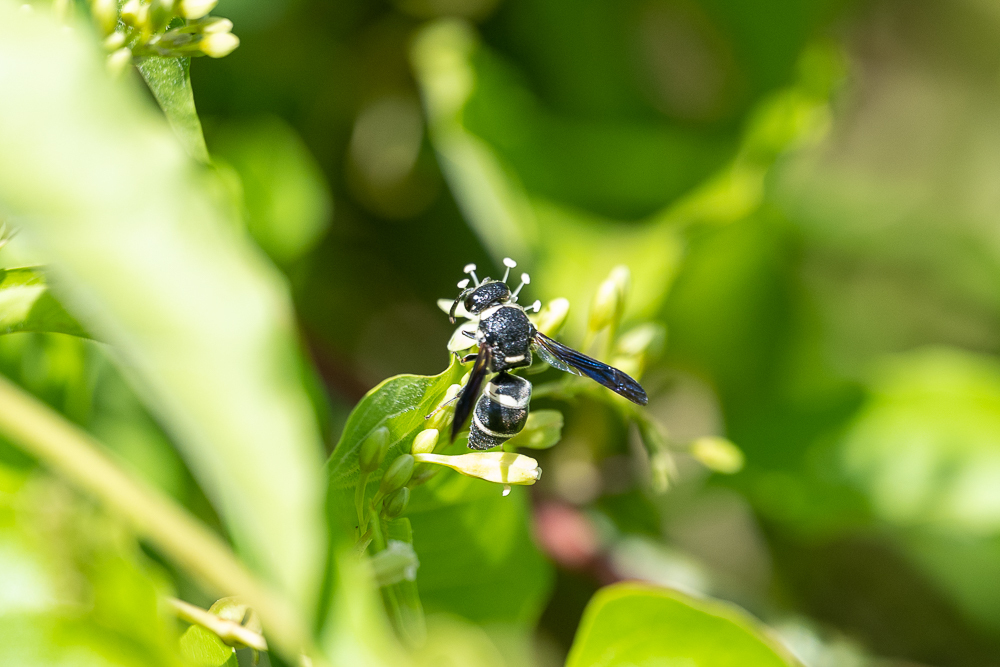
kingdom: Animalia
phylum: Arthropoda
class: Insecta
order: Hymenoptera
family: Eumenidae
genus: Euodynerus
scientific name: Euodynerus megaera
